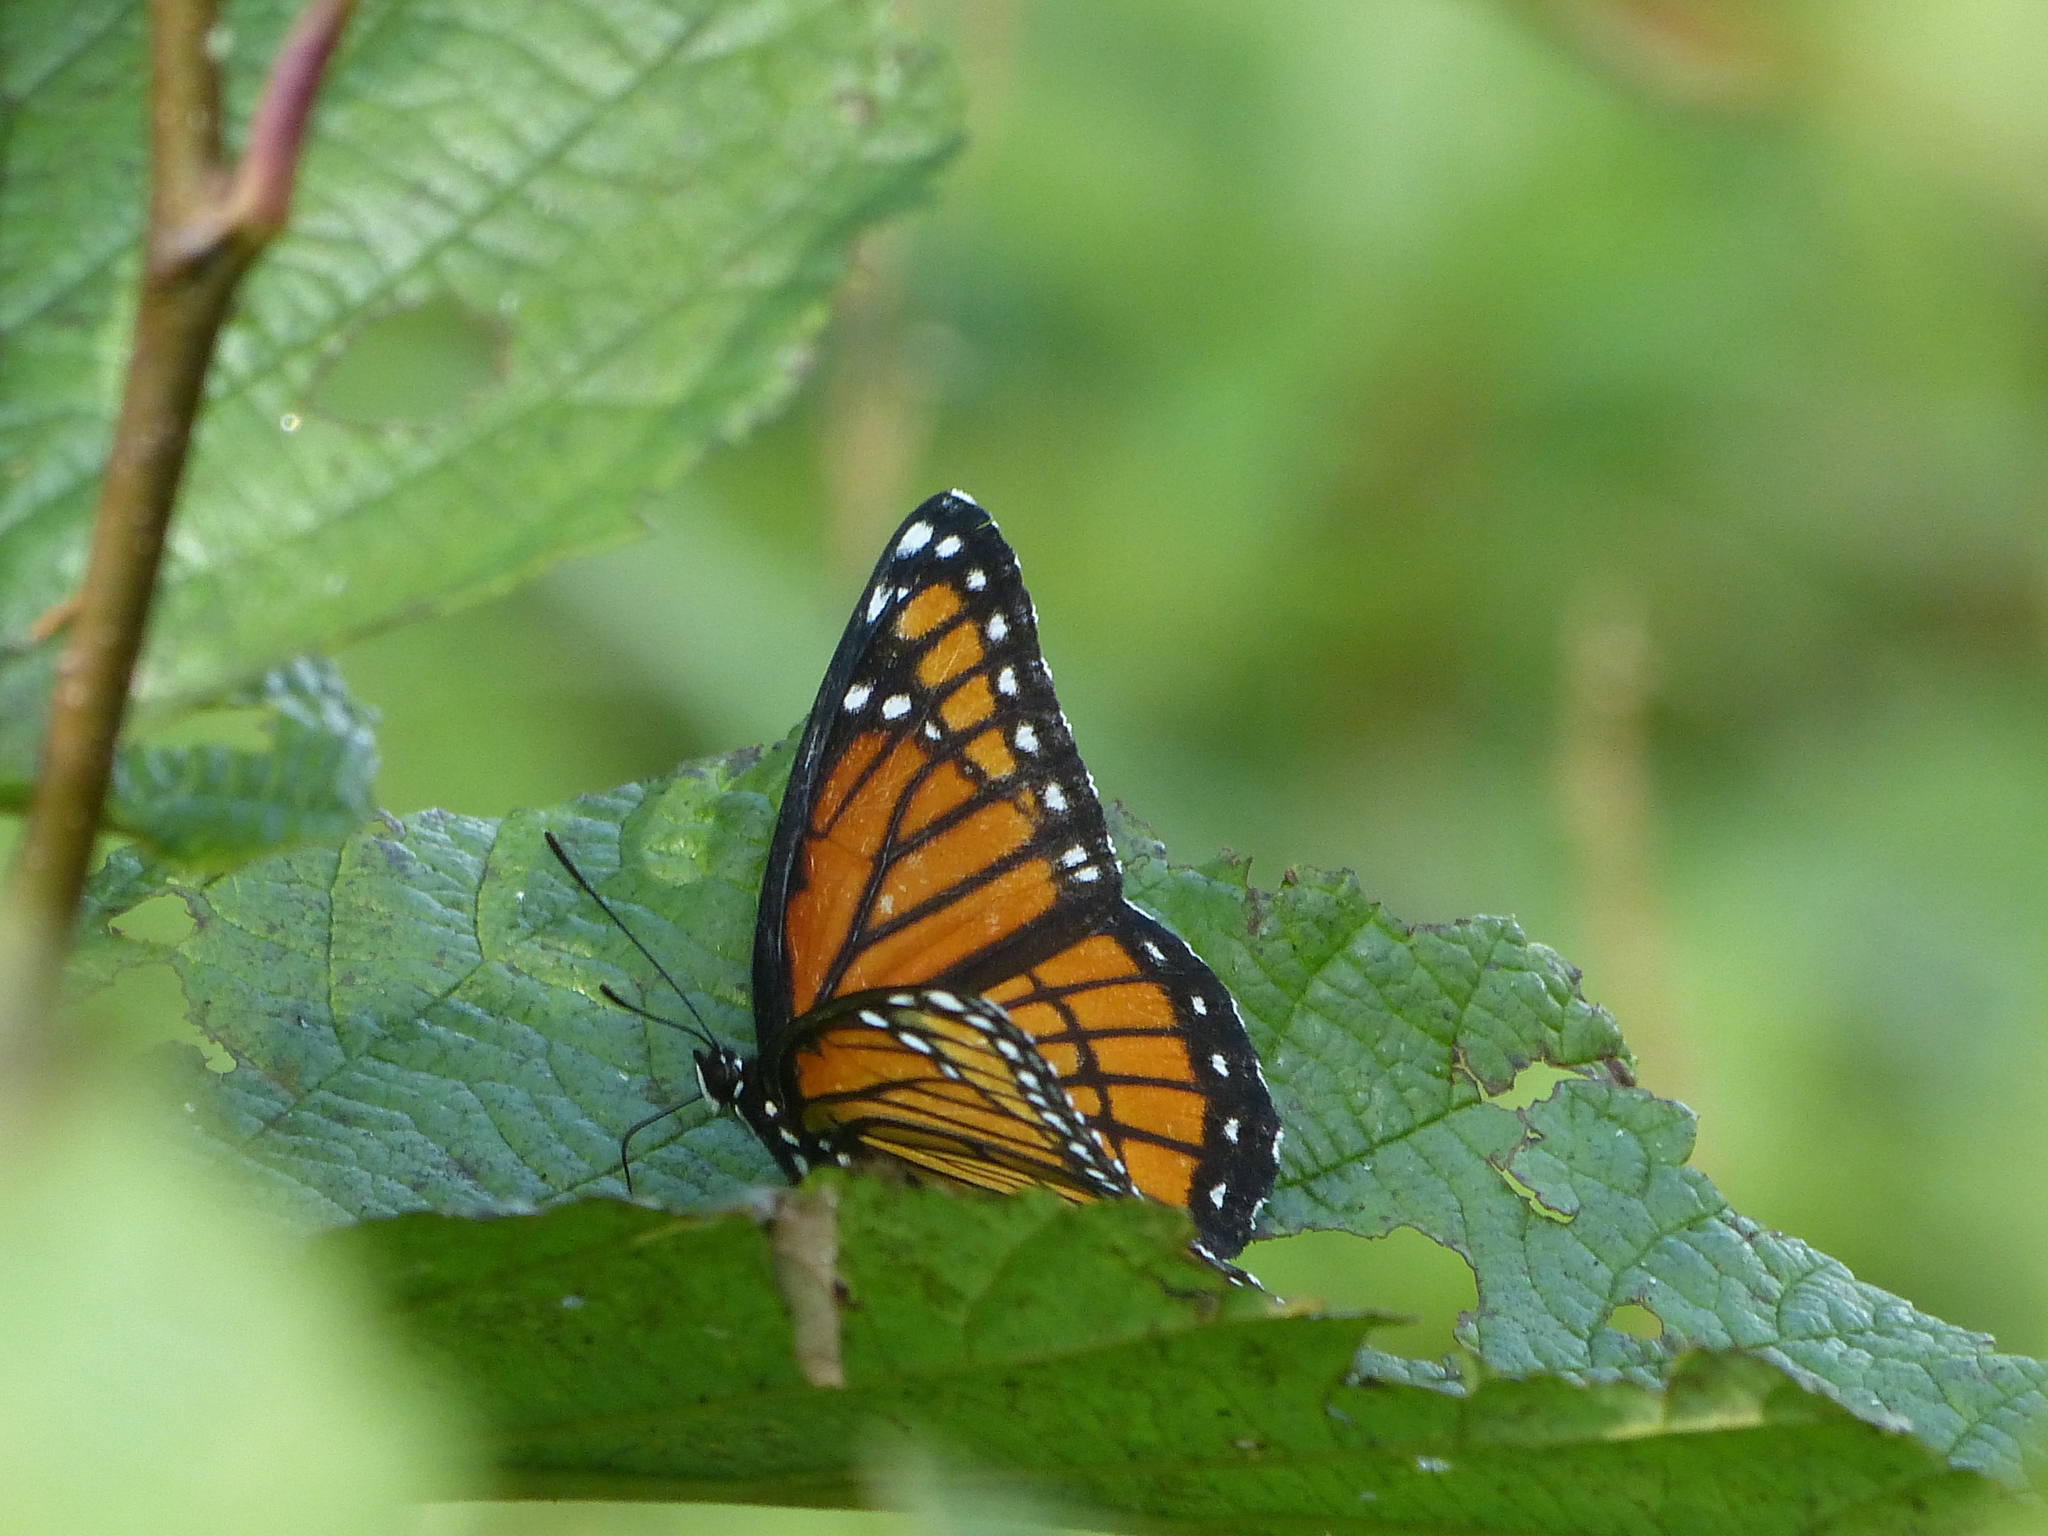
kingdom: Animalia
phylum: Arthropoda
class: Insecta
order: Lepidoptera
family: Nymphalidae
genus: Limenitis
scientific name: Limenitis archippus
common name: Viceroy
